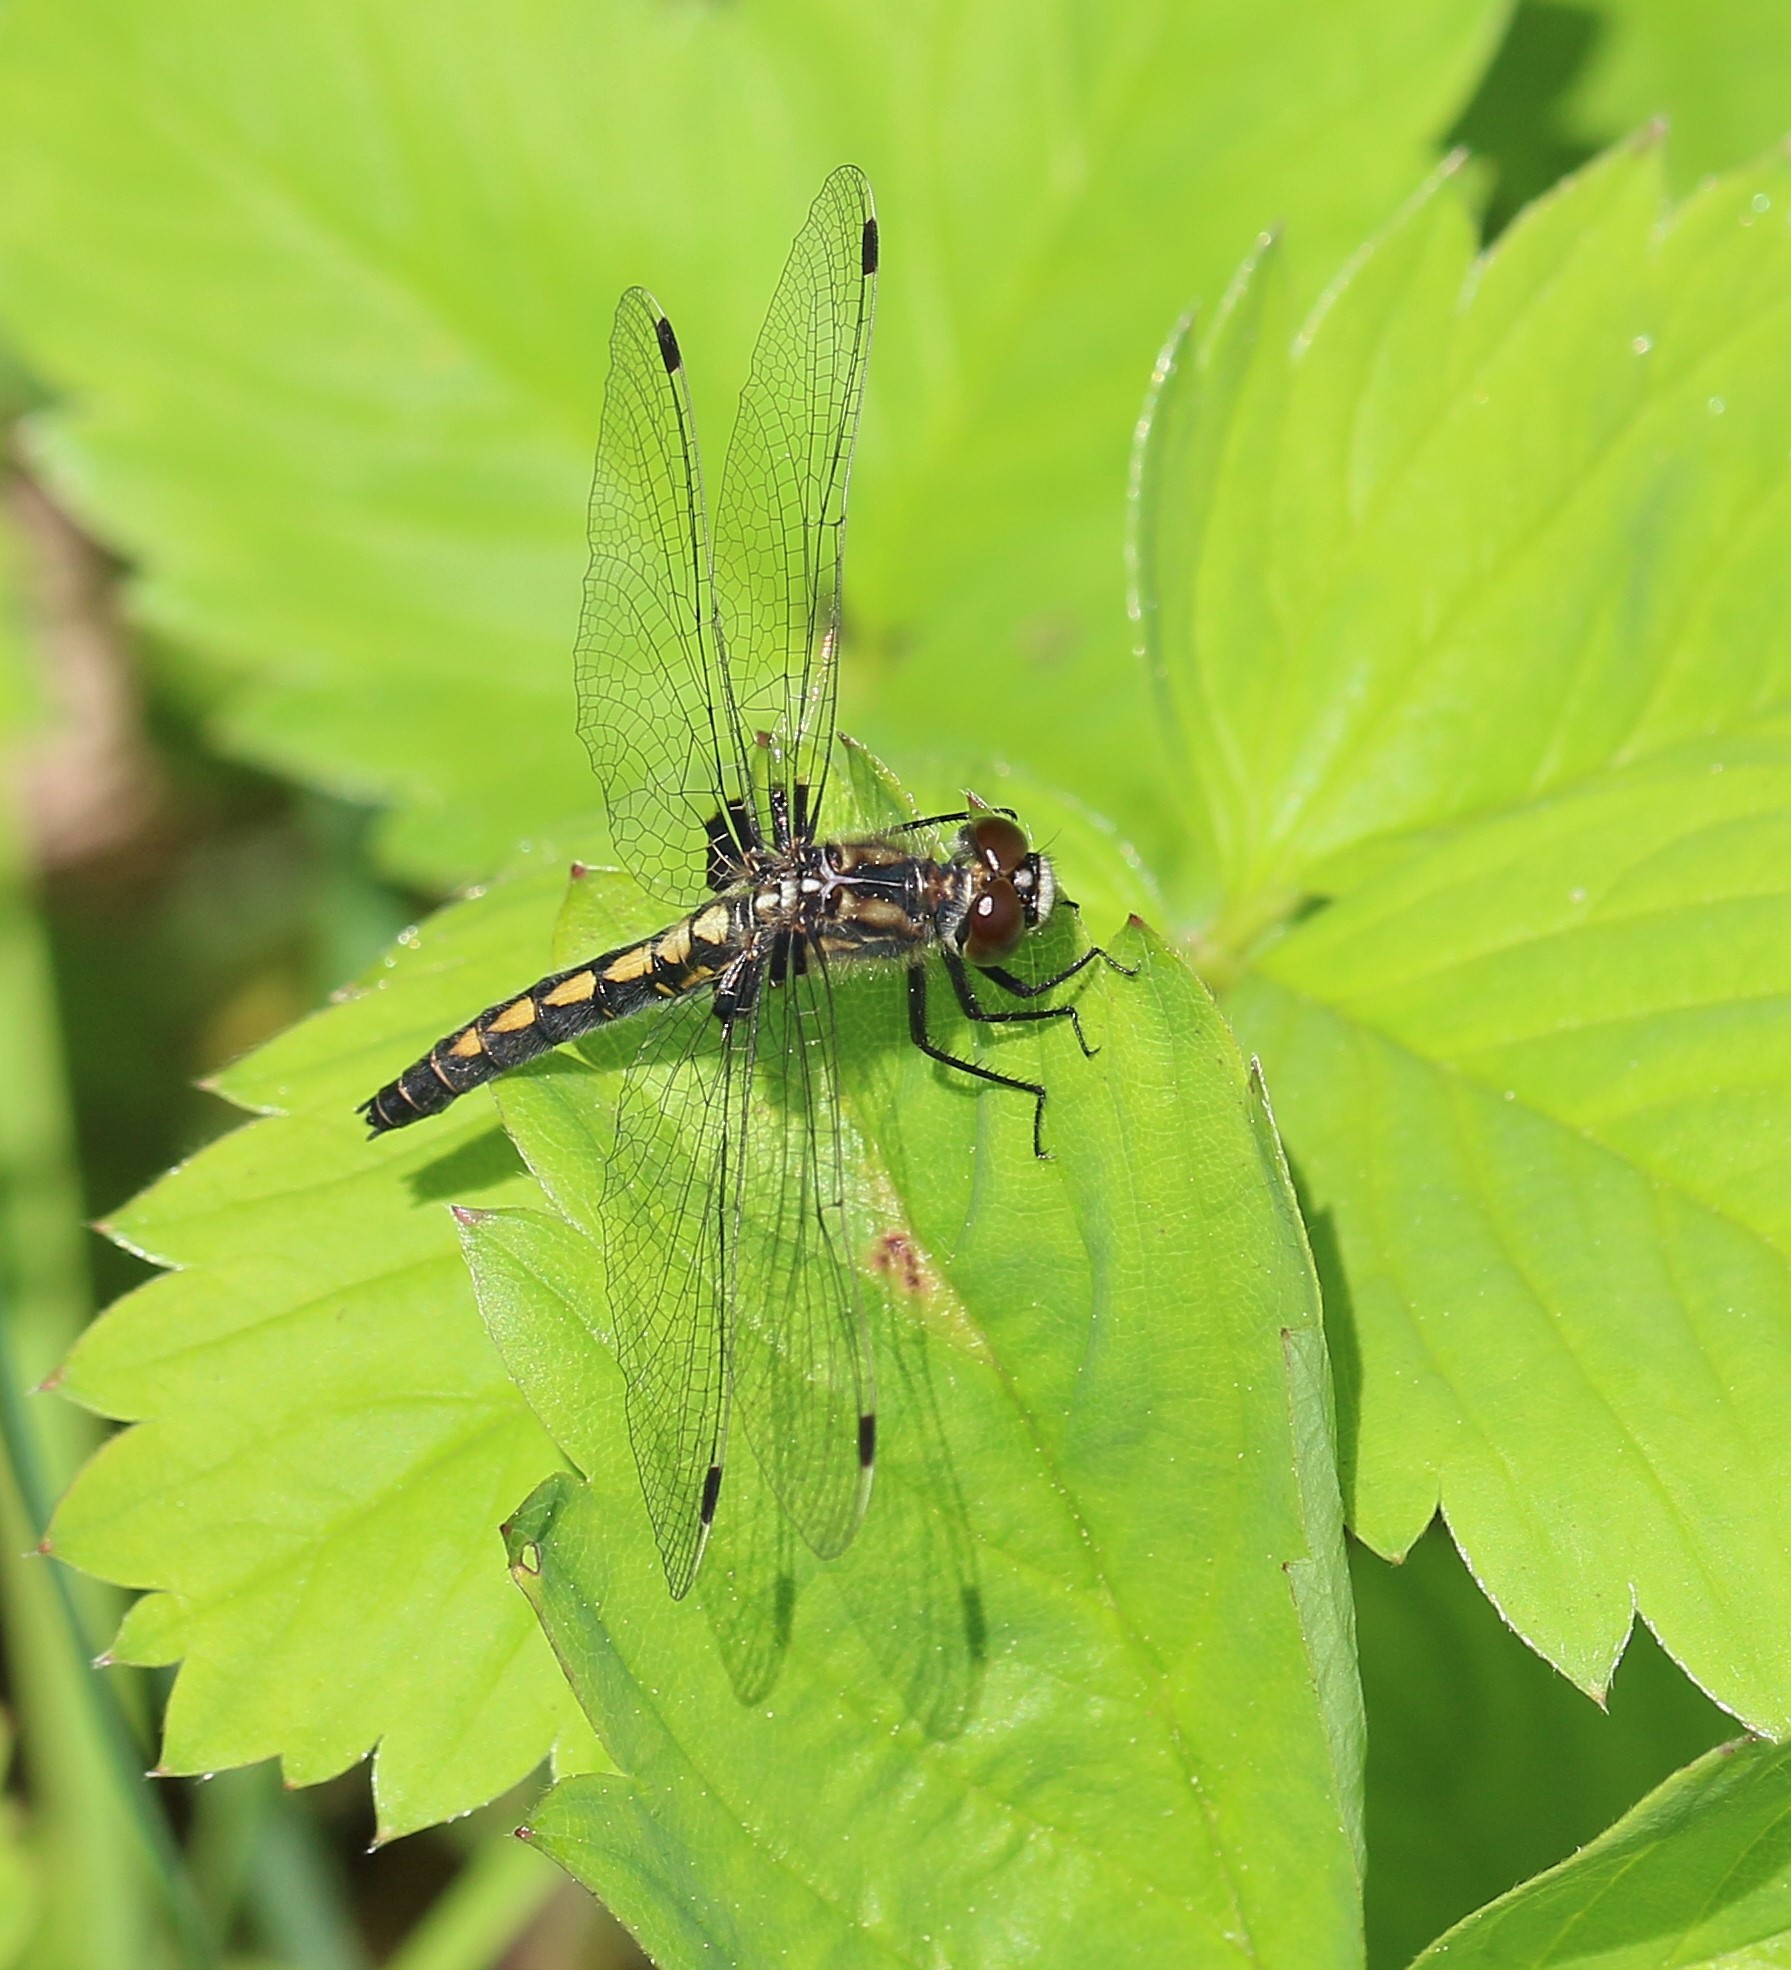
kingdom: Animalia
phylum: Arthropoda
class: Insecta
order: Odonata
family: Libellulidae
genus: Leucorrhinia
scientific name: Leucorrhinia hudsonica
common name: Hudsonian whiteface
